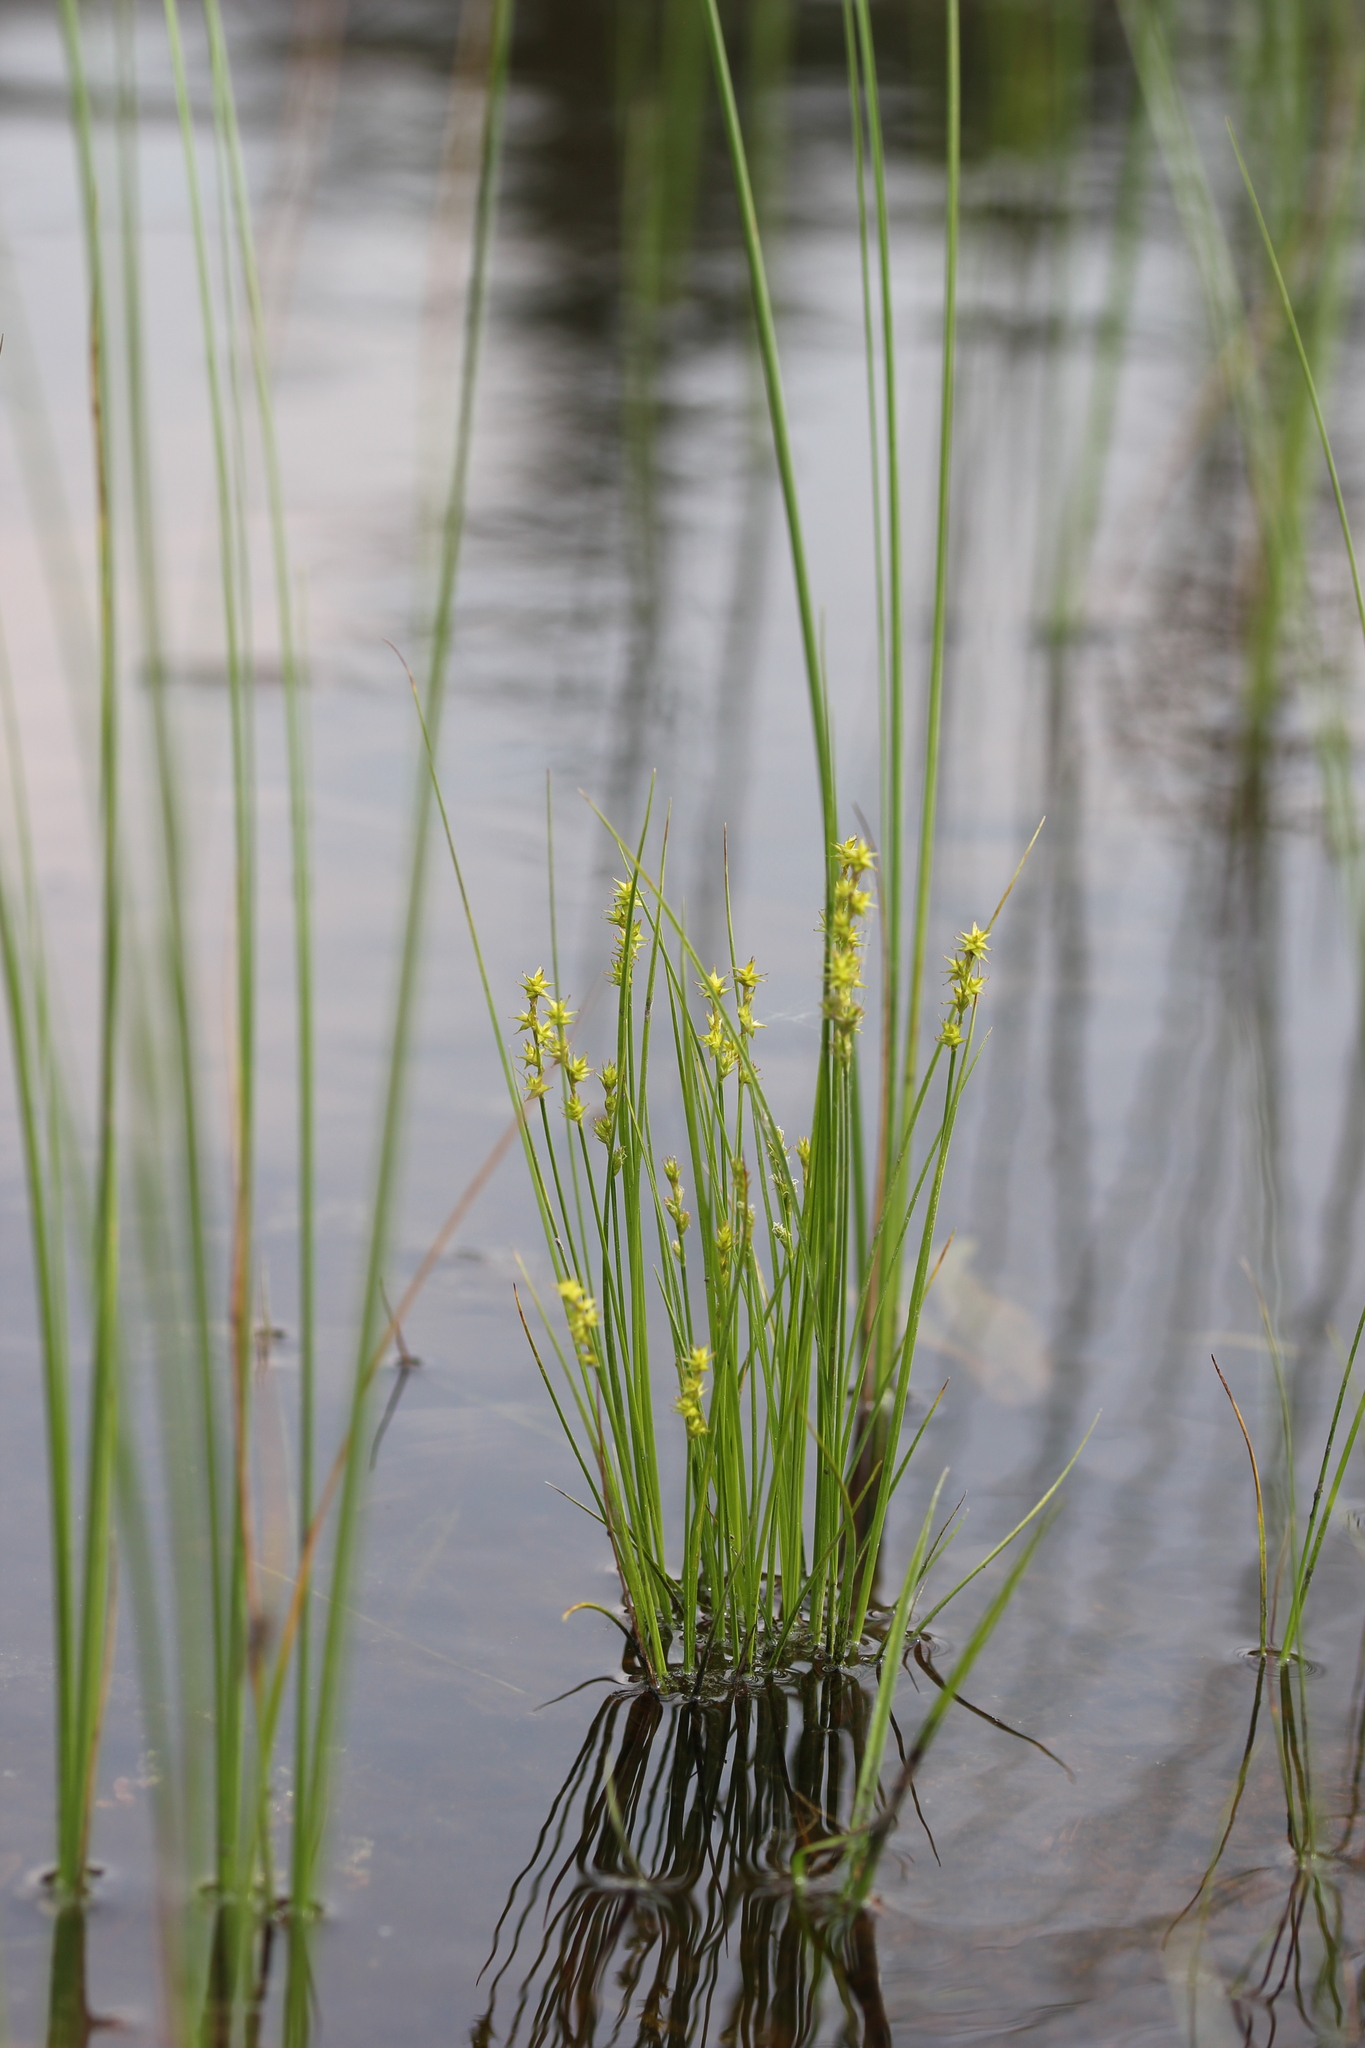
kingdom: Plantae
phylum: Tracheophyta
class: Liliopsida
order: Poales
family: Cyperaceae
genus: Carex
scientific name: Carex echinata
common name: Star sedge
